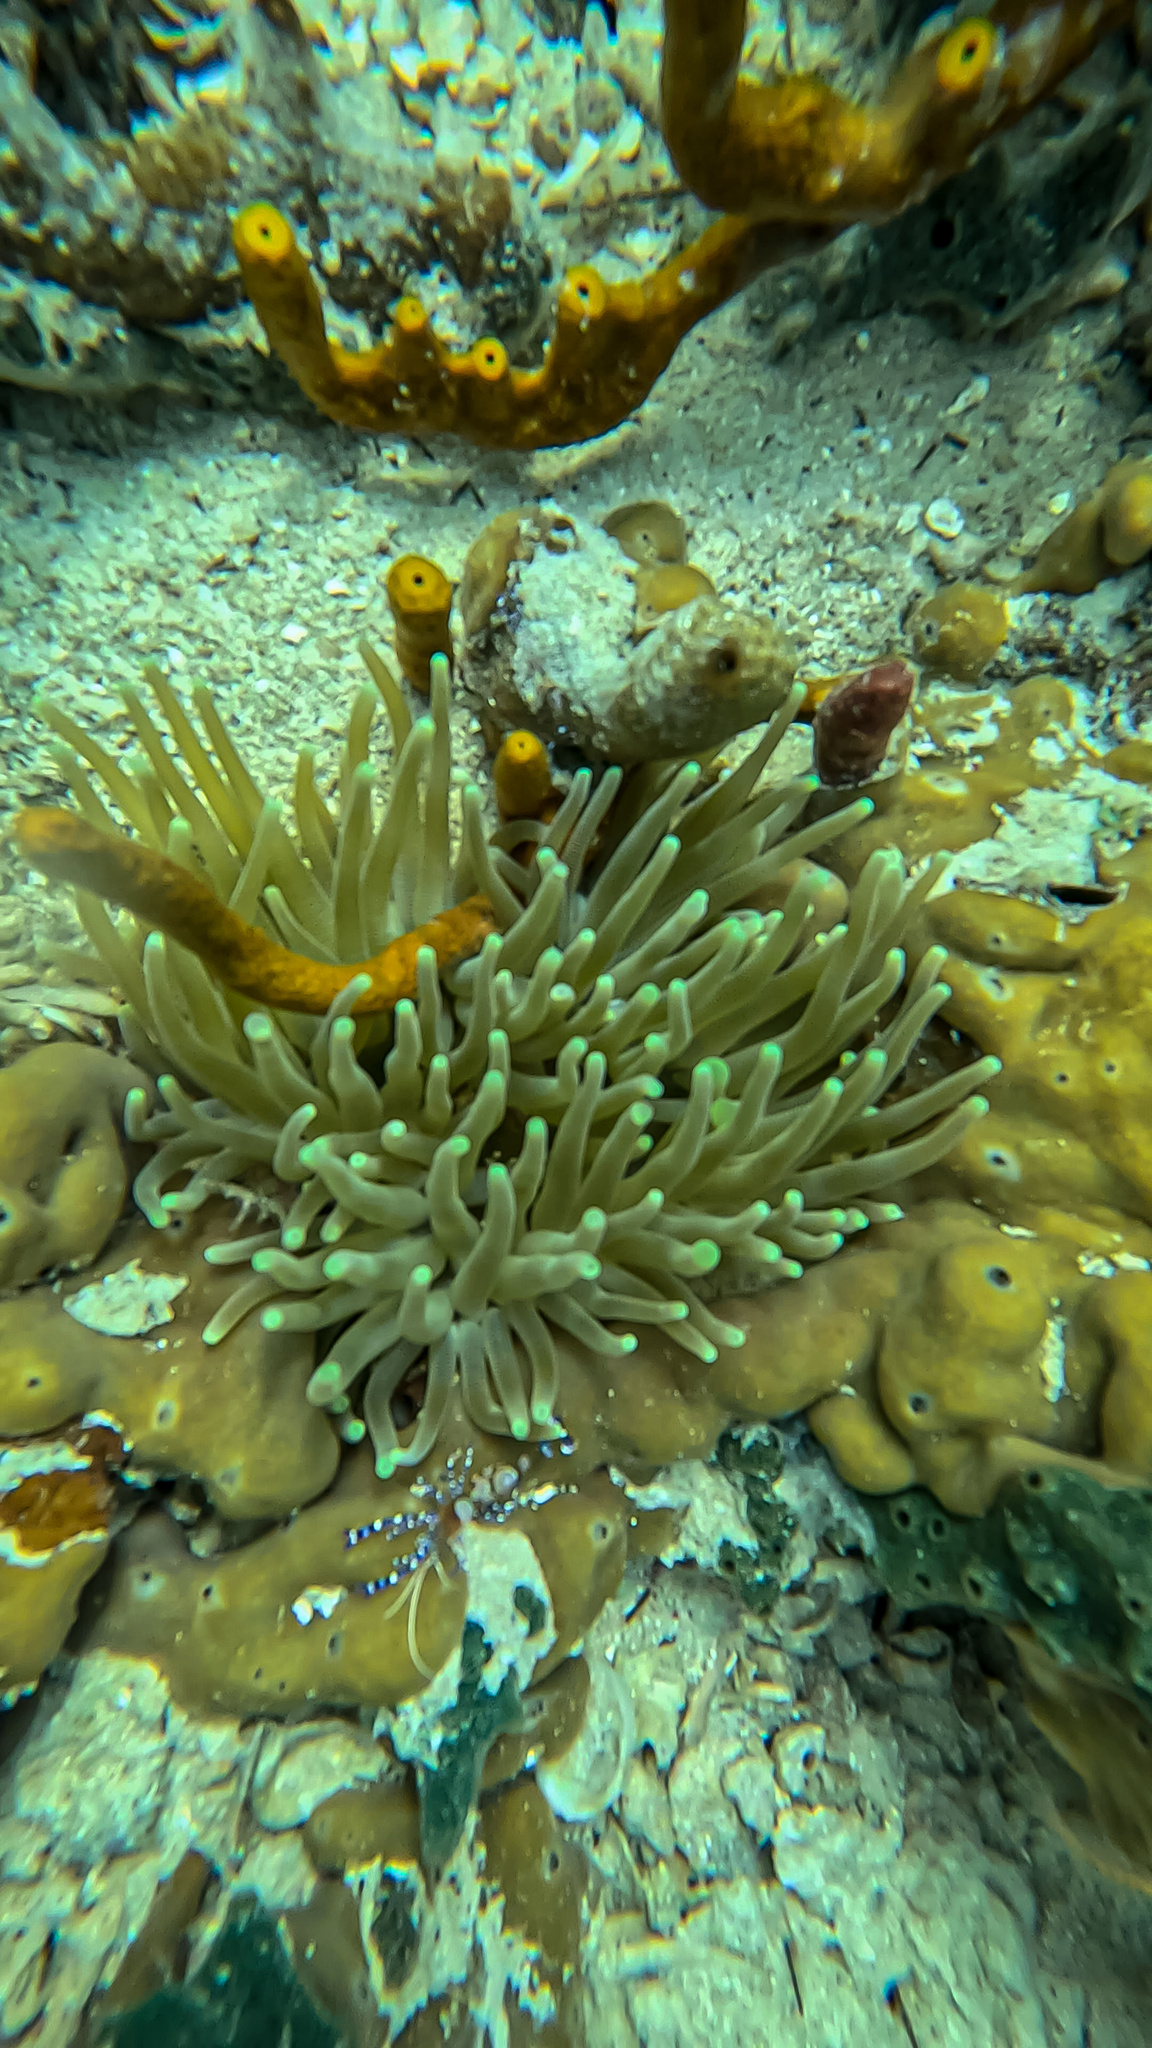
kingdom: Animalia
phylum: Cnidaria
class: Anthozoa
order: Actiniaria
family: Actiniidae
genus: Condylactis
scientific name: Condylactis gigantea
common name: Giant caribbean anemone
